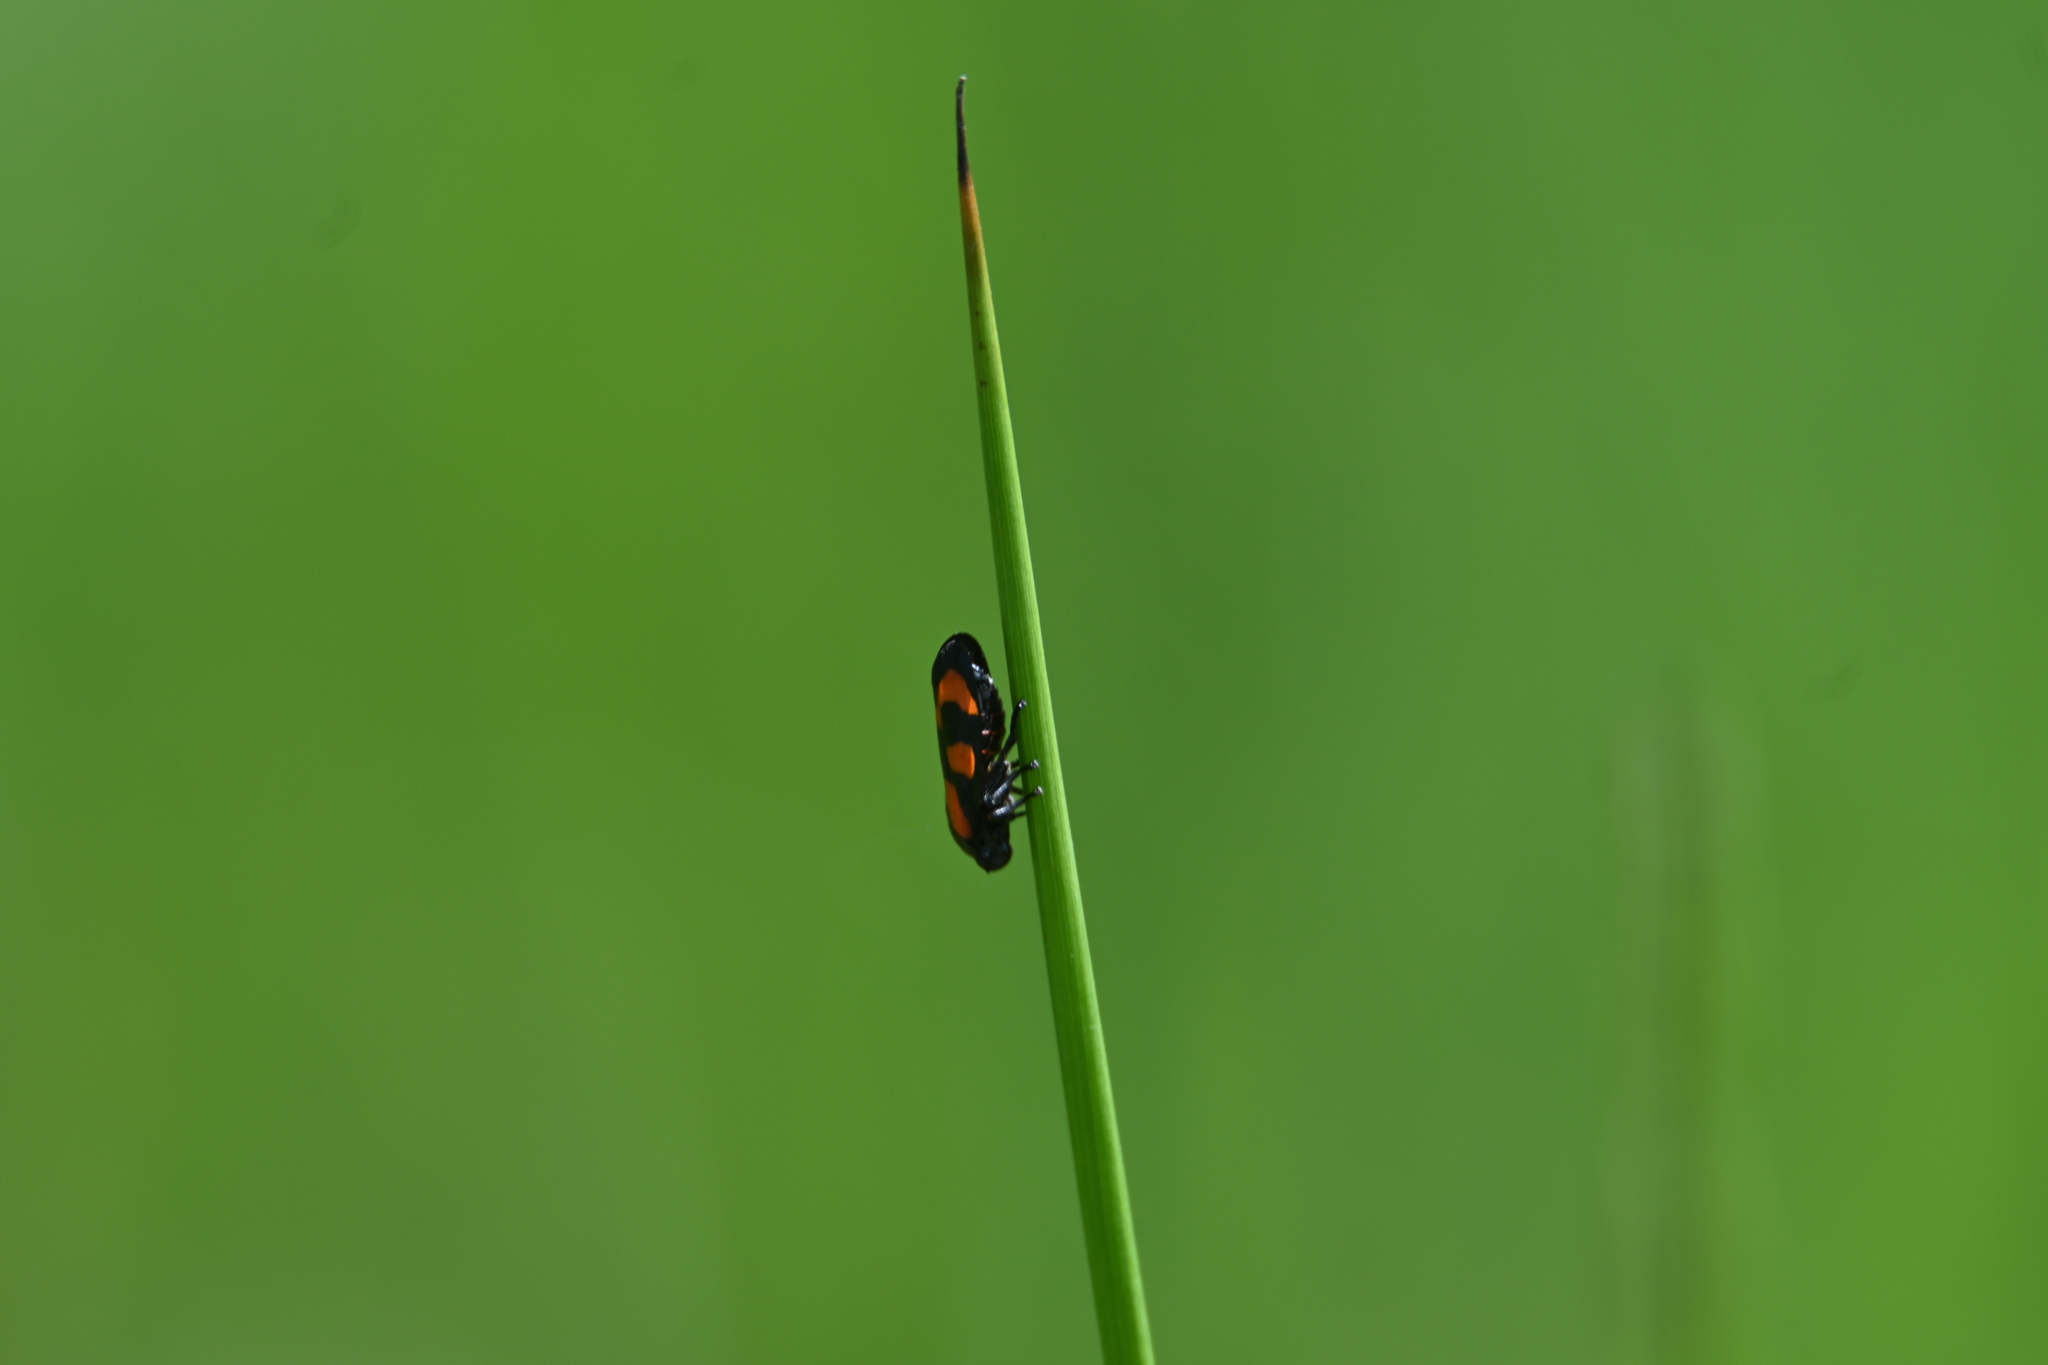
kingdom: Animalia
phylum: Arthropoda
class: Insecta
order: Hemiptera
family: Cercopidae
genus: Cercopis
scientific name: Cercopis vulnerata
